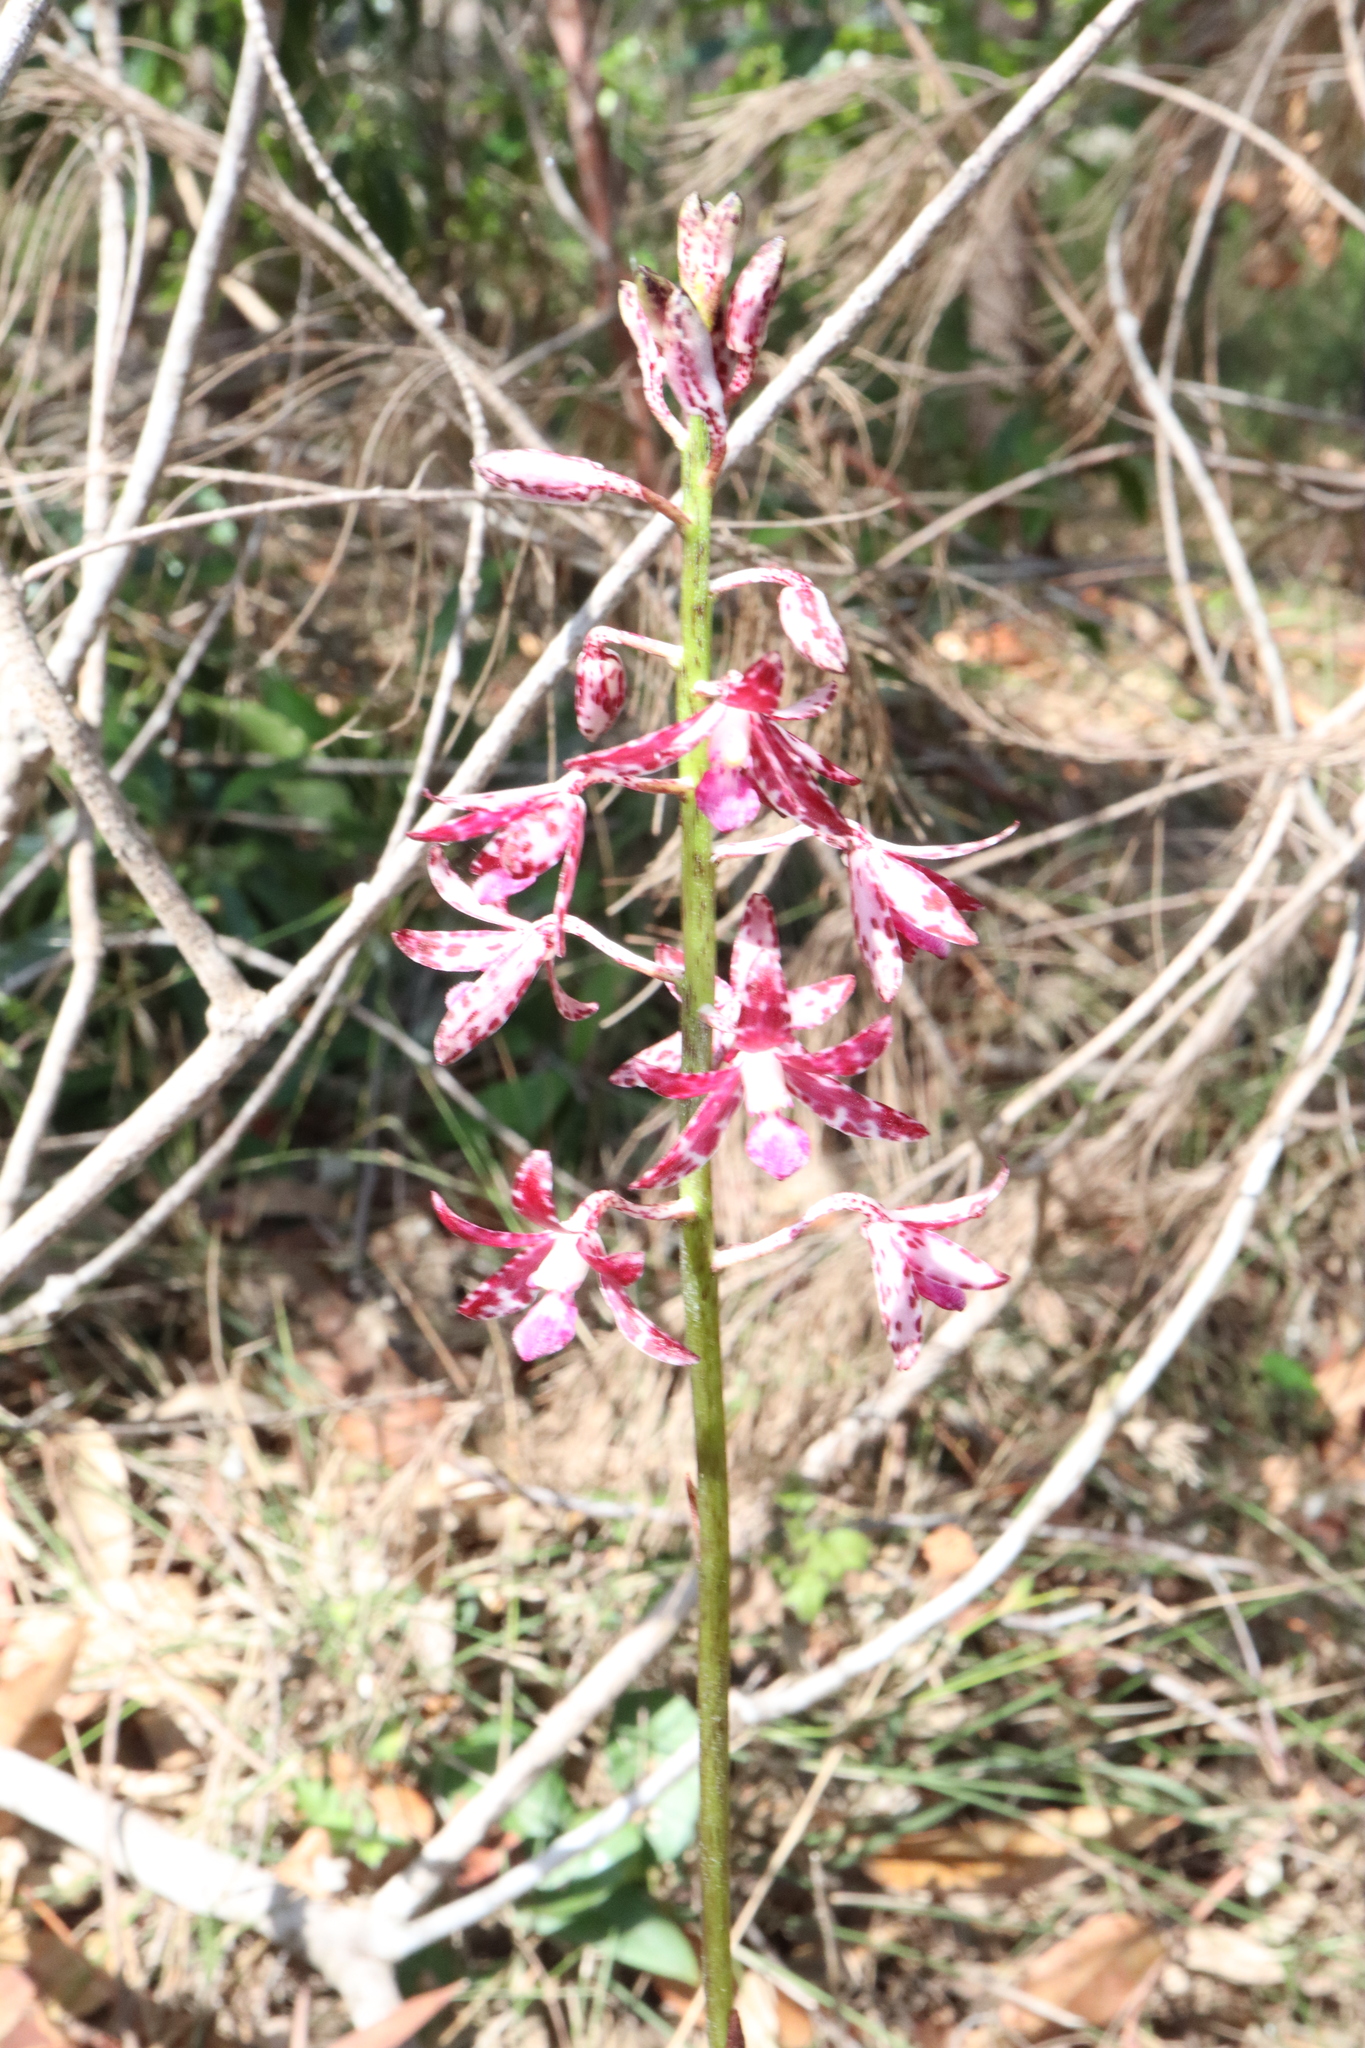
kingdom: Plantae
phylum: Tracheophyta
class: Liliopsida
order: Asparagales
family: Orchidaceae
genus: Dipodium
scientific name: Dipodium variegatum
